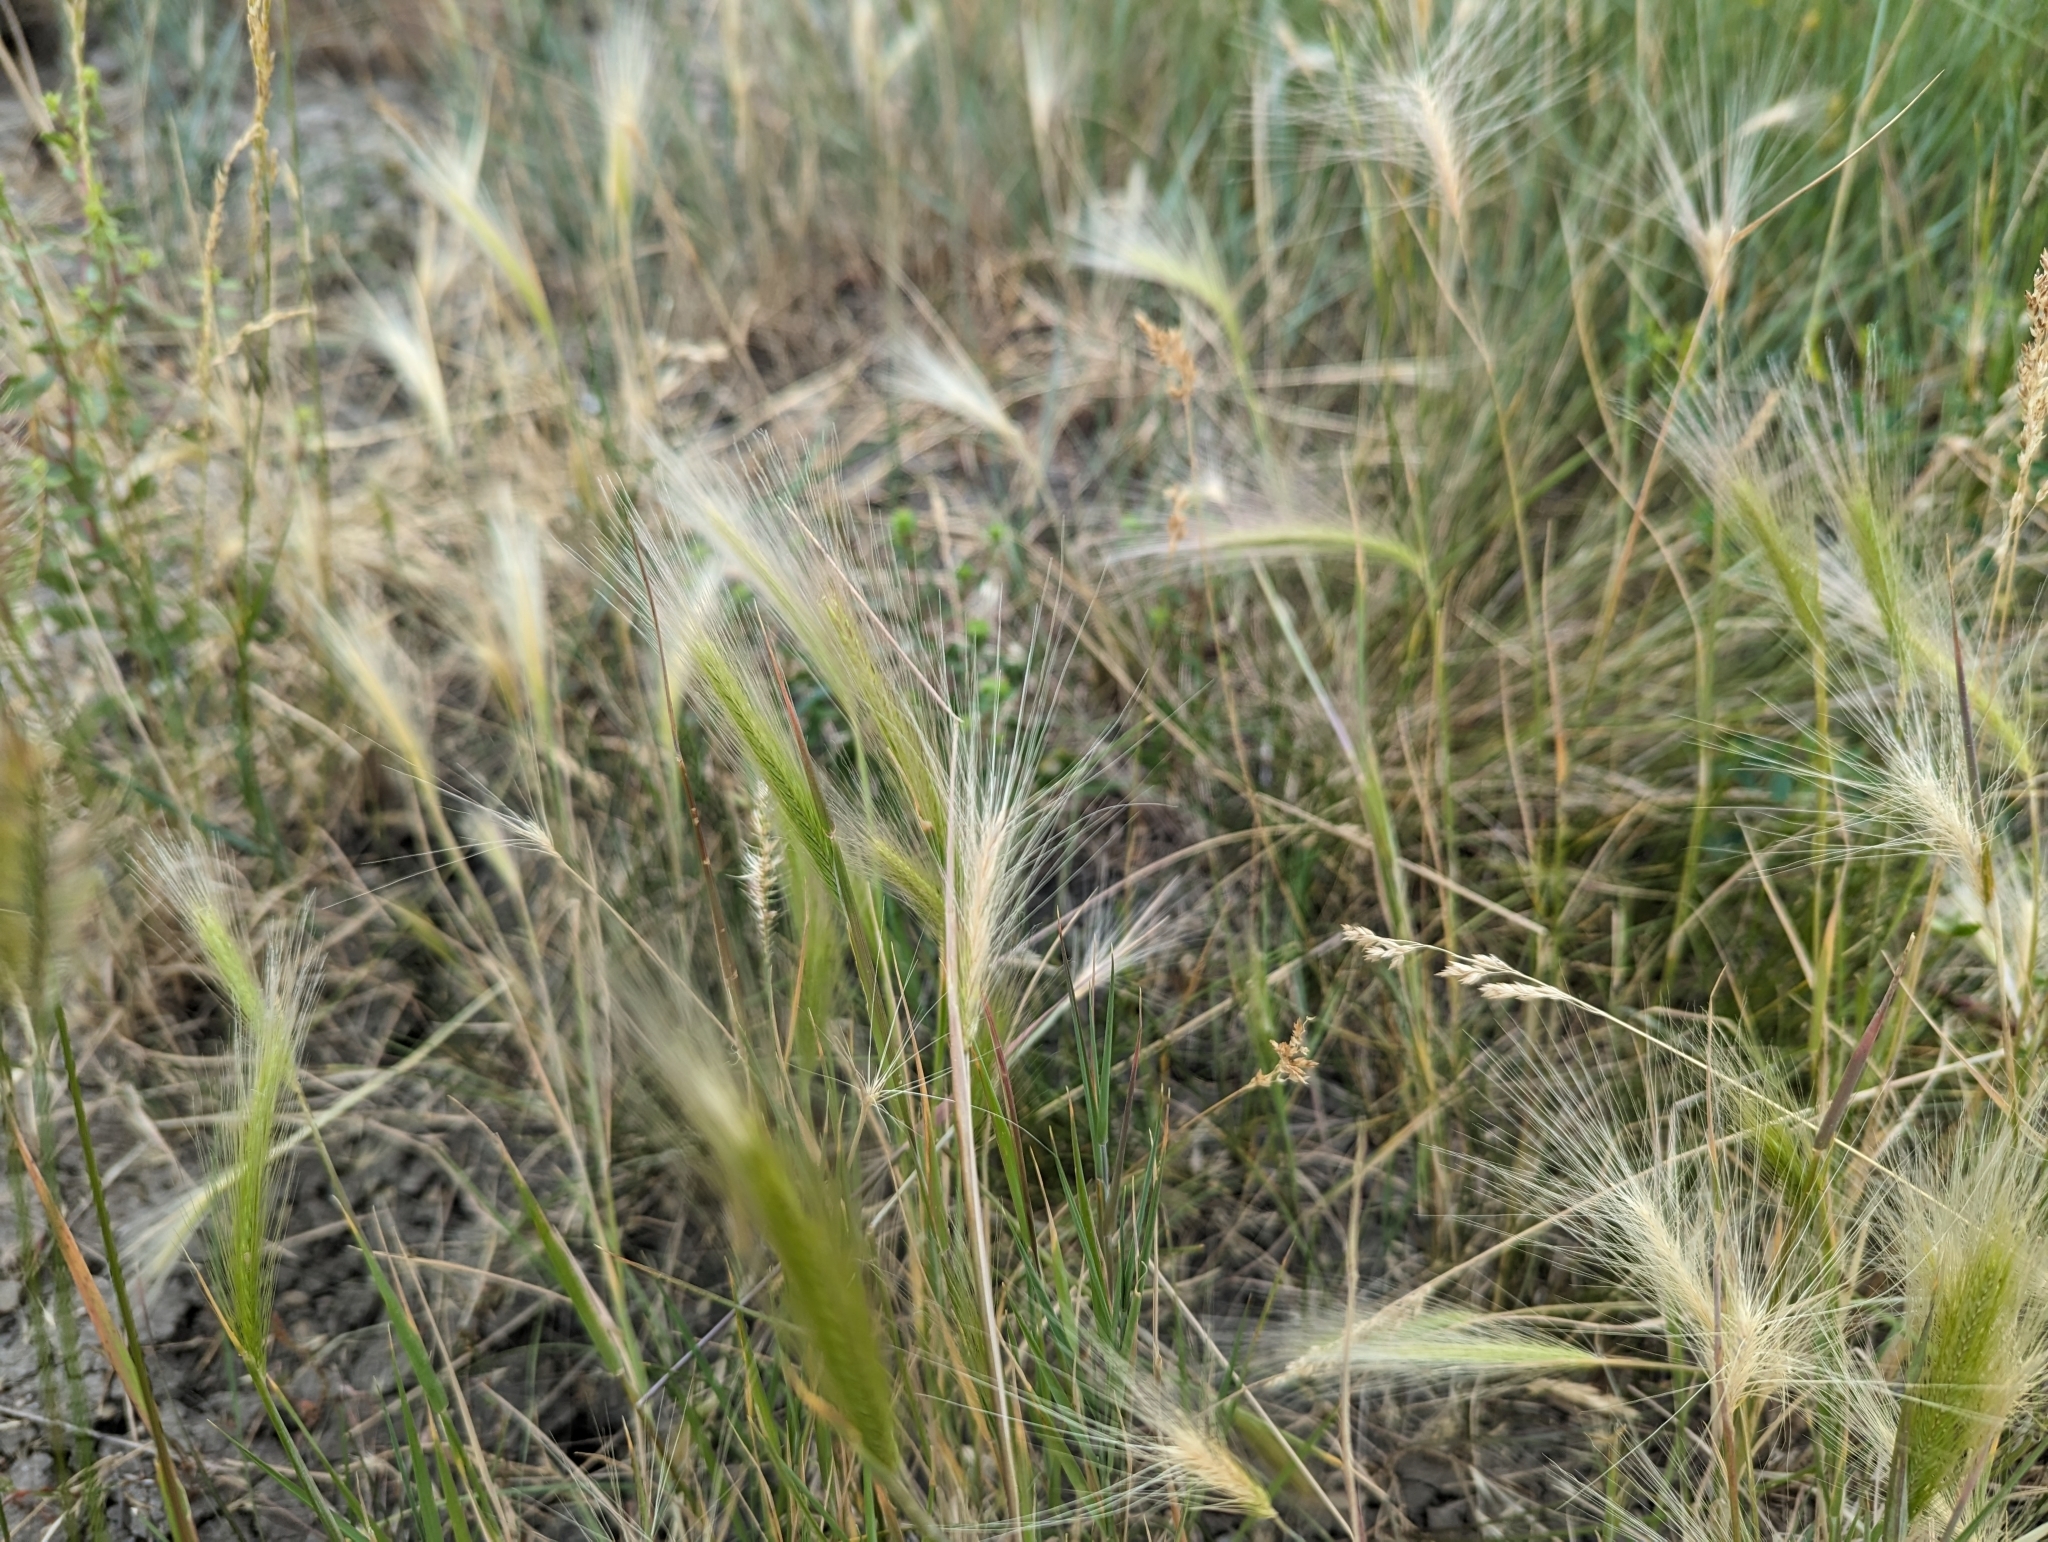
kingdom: Plantae
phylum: Tracheophyta
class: Liliopsida
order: Poales
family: Poaceae
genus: Hordeum
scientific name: Hordeum jubatum
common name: Foxtail barley
